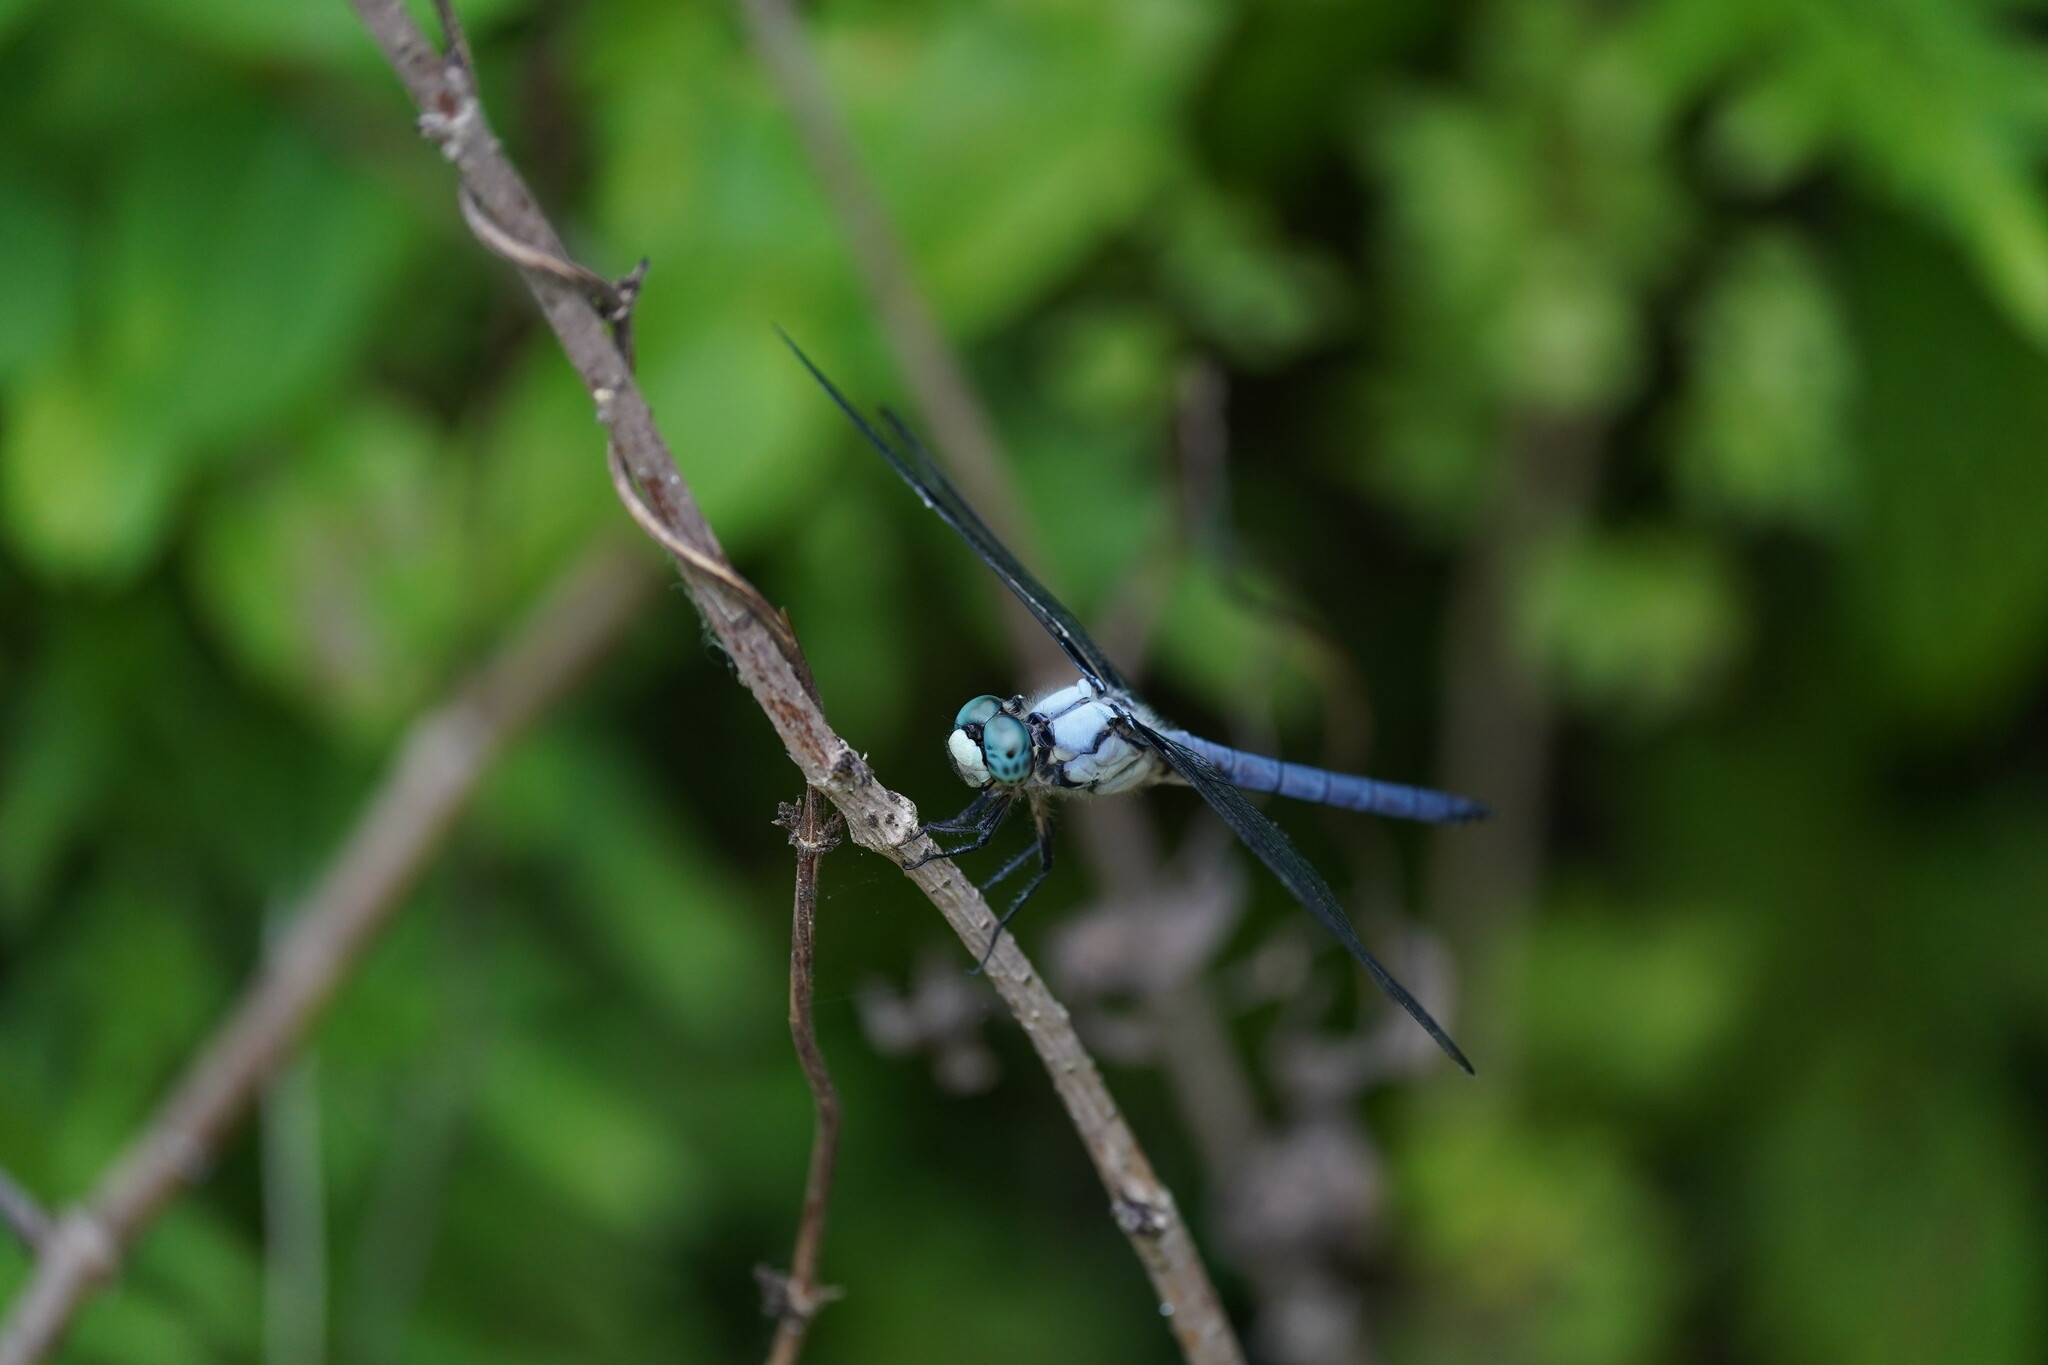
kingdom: Animalia
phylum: Arthropoda
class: Insecta
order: Odonata
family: Libellulidae
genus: Libellula
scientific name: Libellula vibrans
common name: Great blue skimmer
